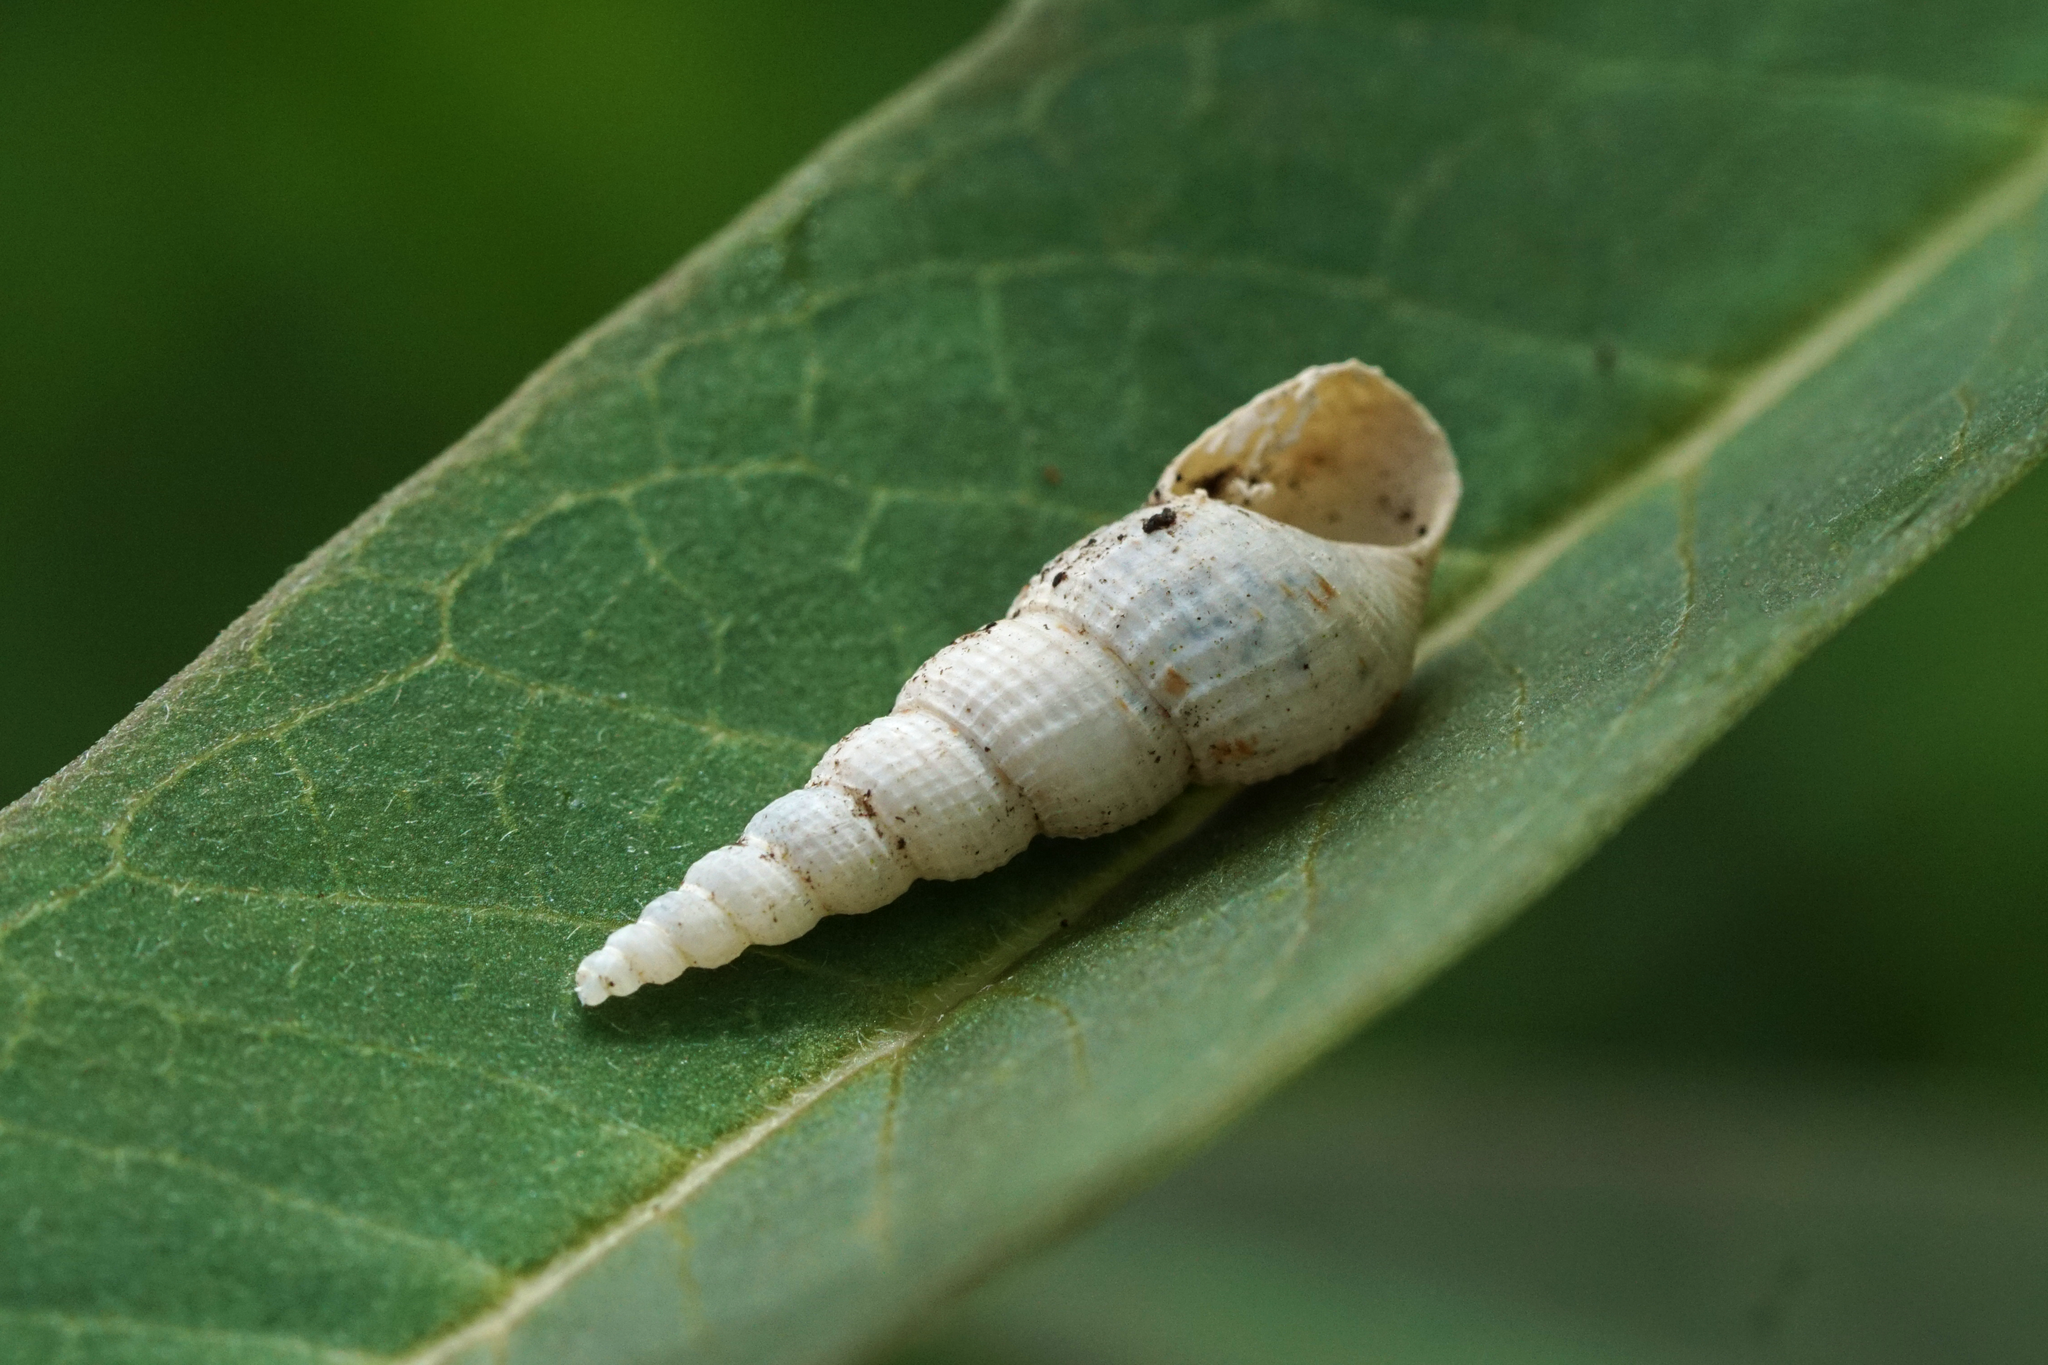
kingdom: Animalia
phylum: Mollusca
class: Gastropoda
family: Thiaridae
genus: Melanoides
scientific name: Melanoides tuberculata
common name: Red-rim melania
